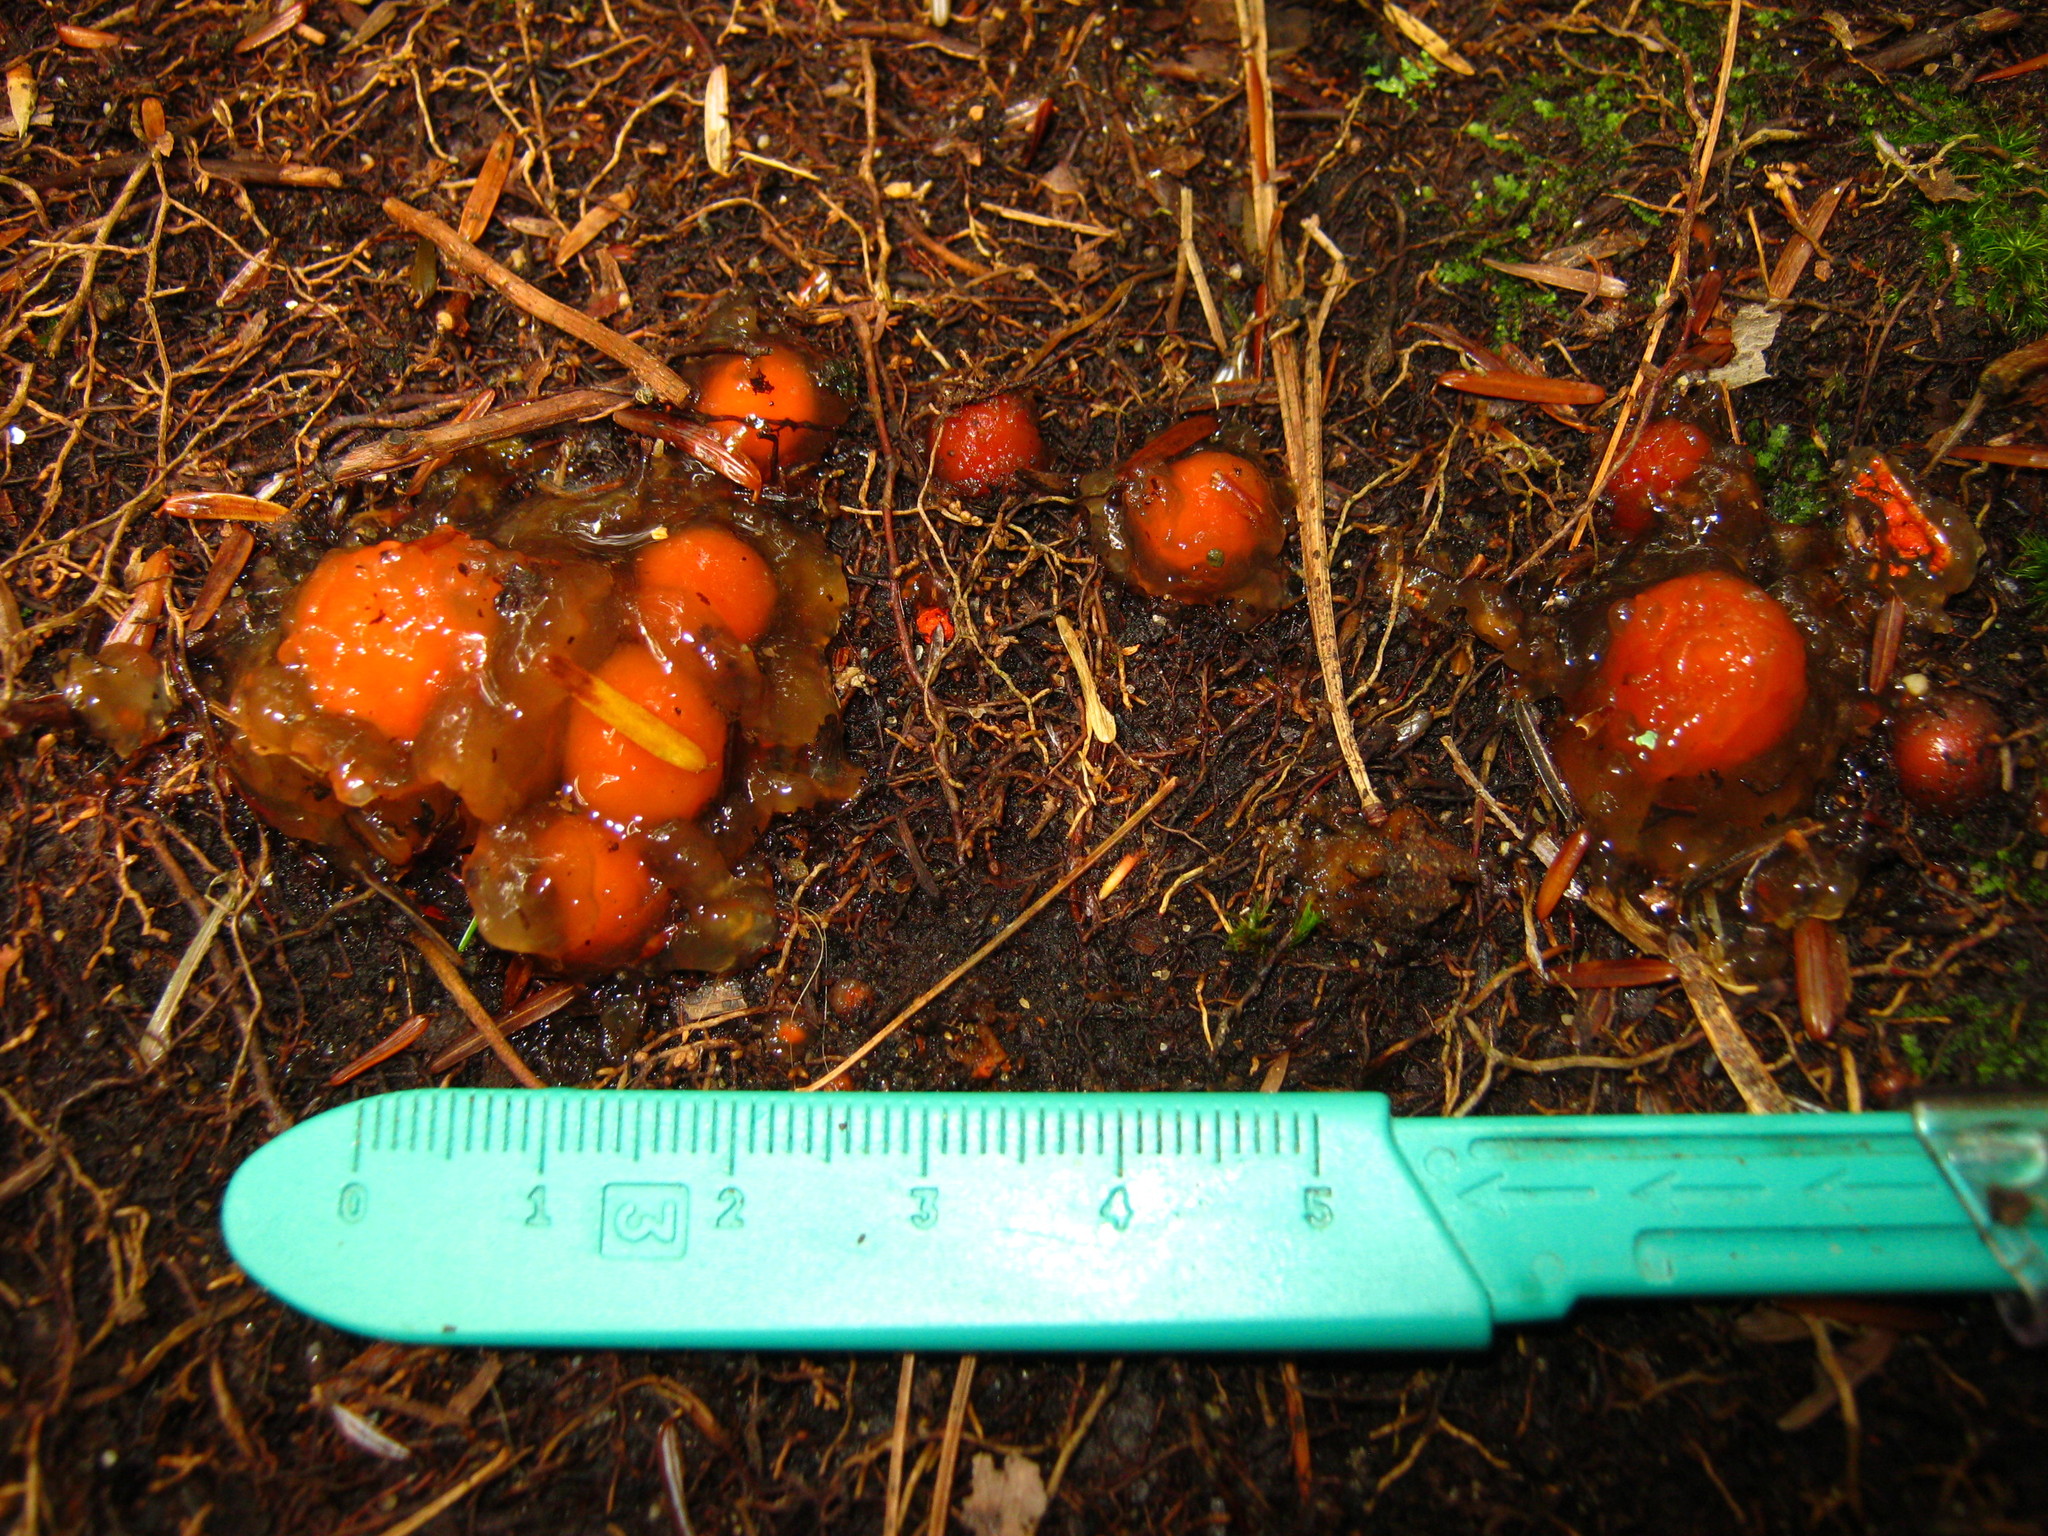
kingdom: Fungi
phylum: Basidiomycota
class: Agaricomycetes
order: Boletales
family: Calostomataceae
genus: Calostoma
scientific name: Calostoma cinnabarinum
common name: Stalked puffball-in-aspic
